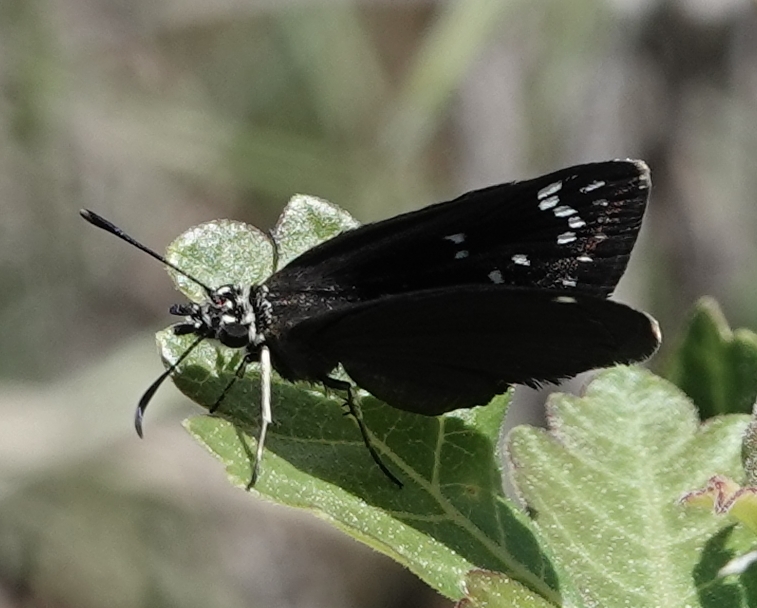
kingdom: Animalia
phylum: Arthropoda
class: Insecta
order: Lepidoptera
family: Hesperiidae
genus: Pholisora
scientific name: Pholisora catullus
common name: Common sootywing
